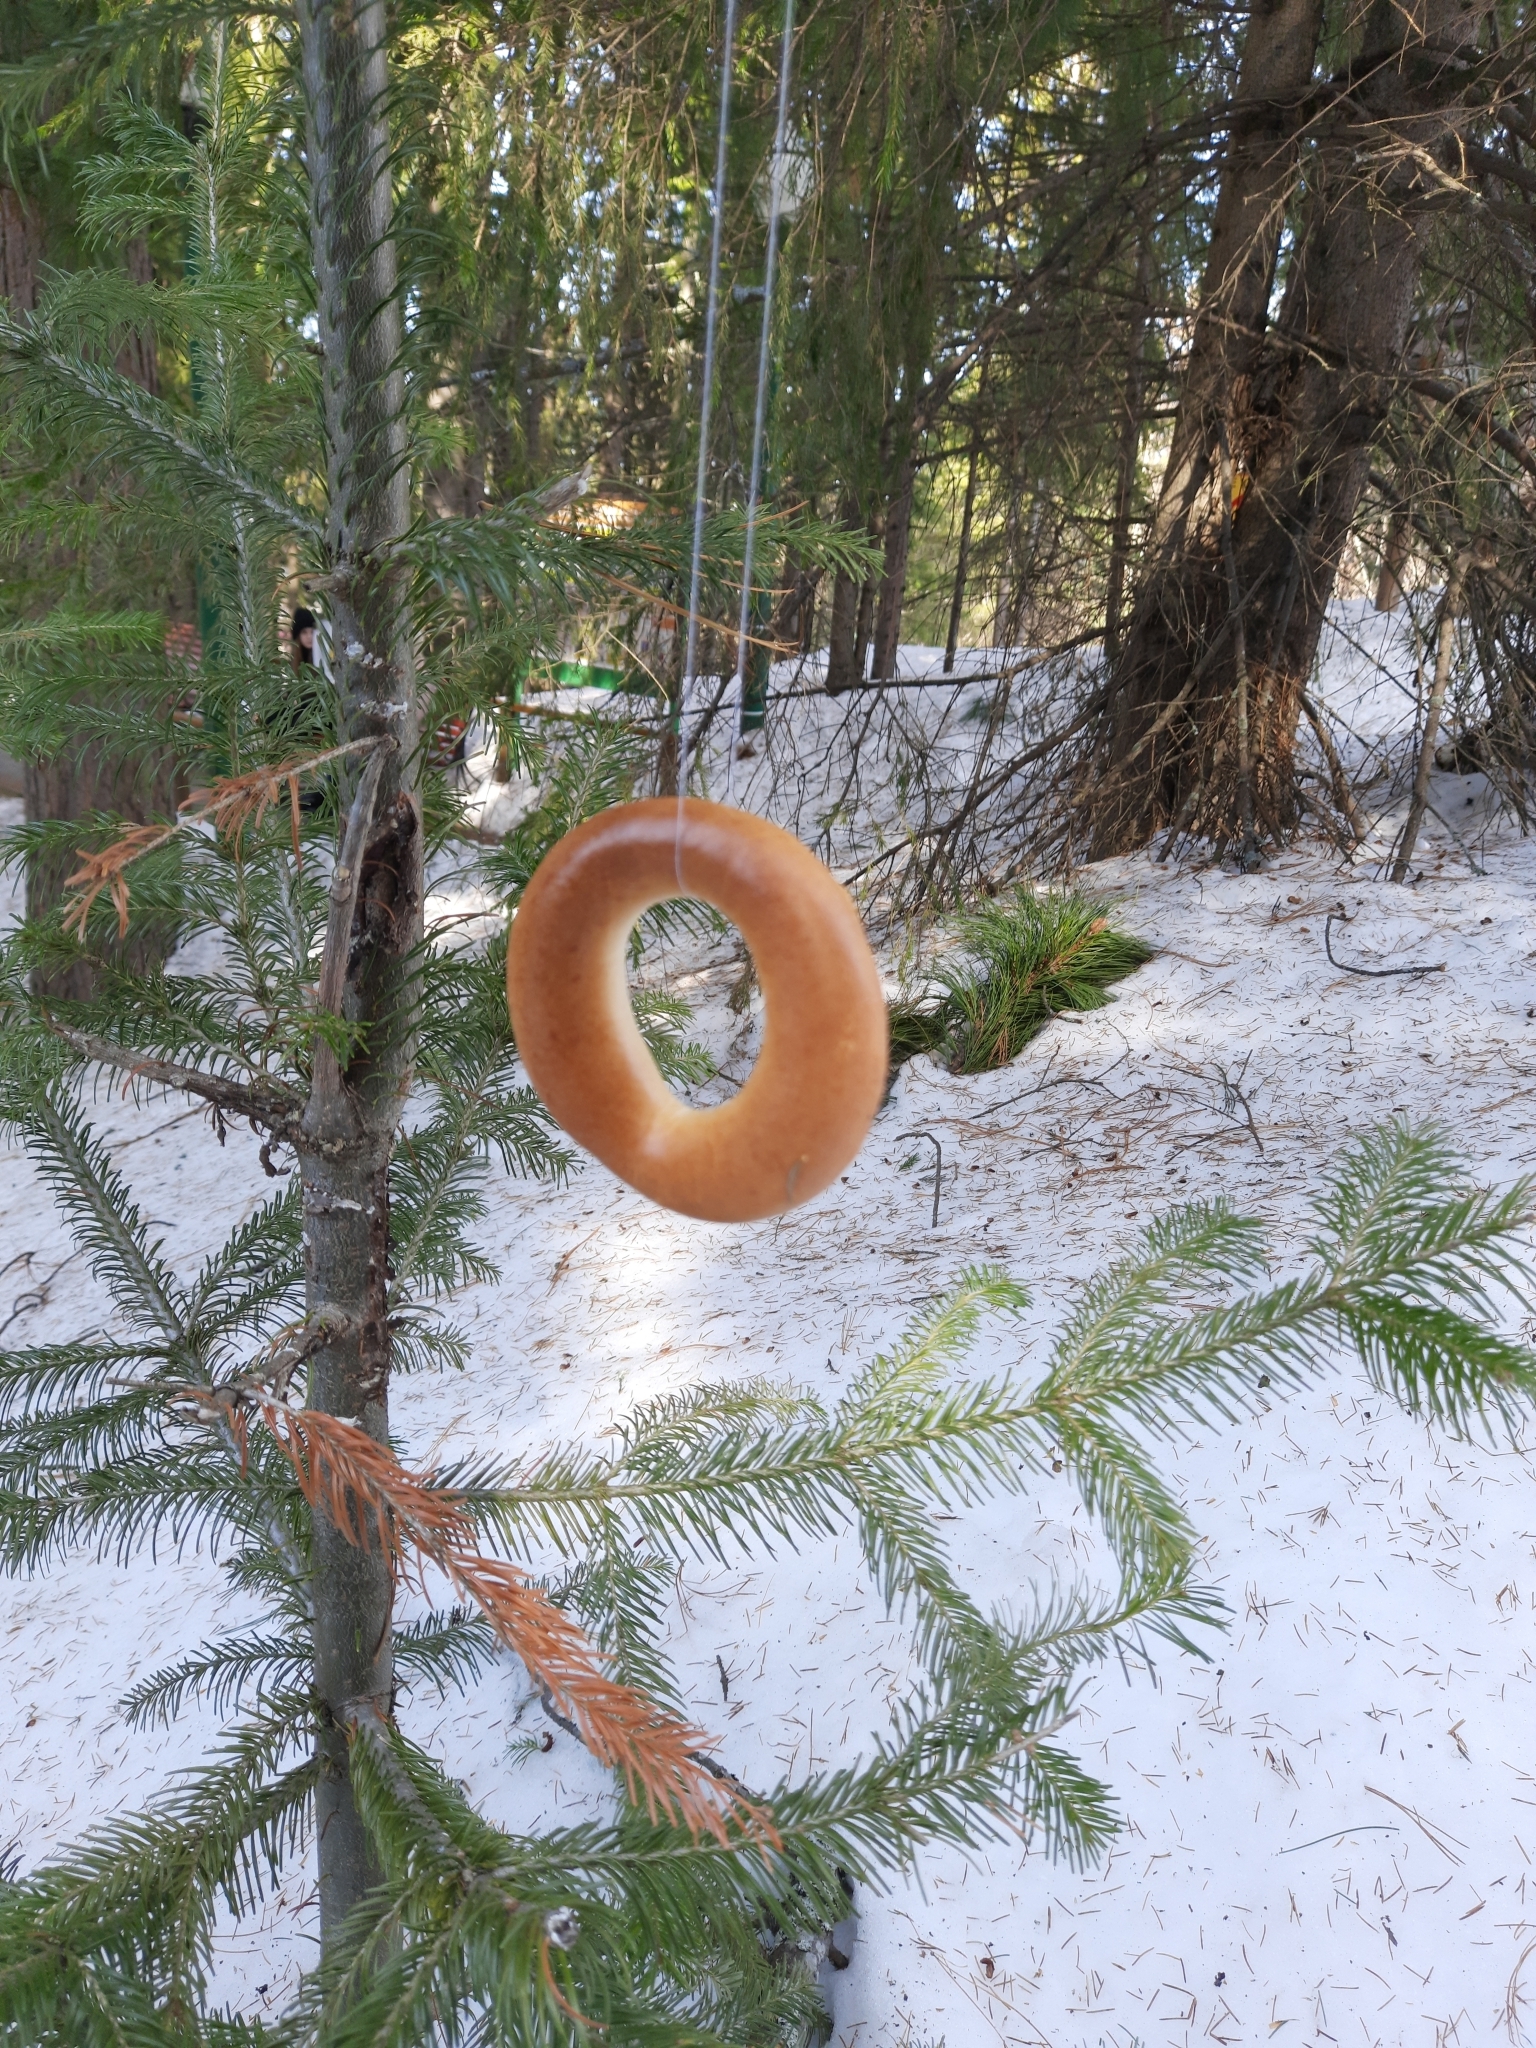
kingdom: Plantae
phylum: Tracheophyta
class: Pinopsida
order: Pinales
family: Pinaceae
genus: Abies
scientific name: Abies sibirica
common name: Siberian fir
